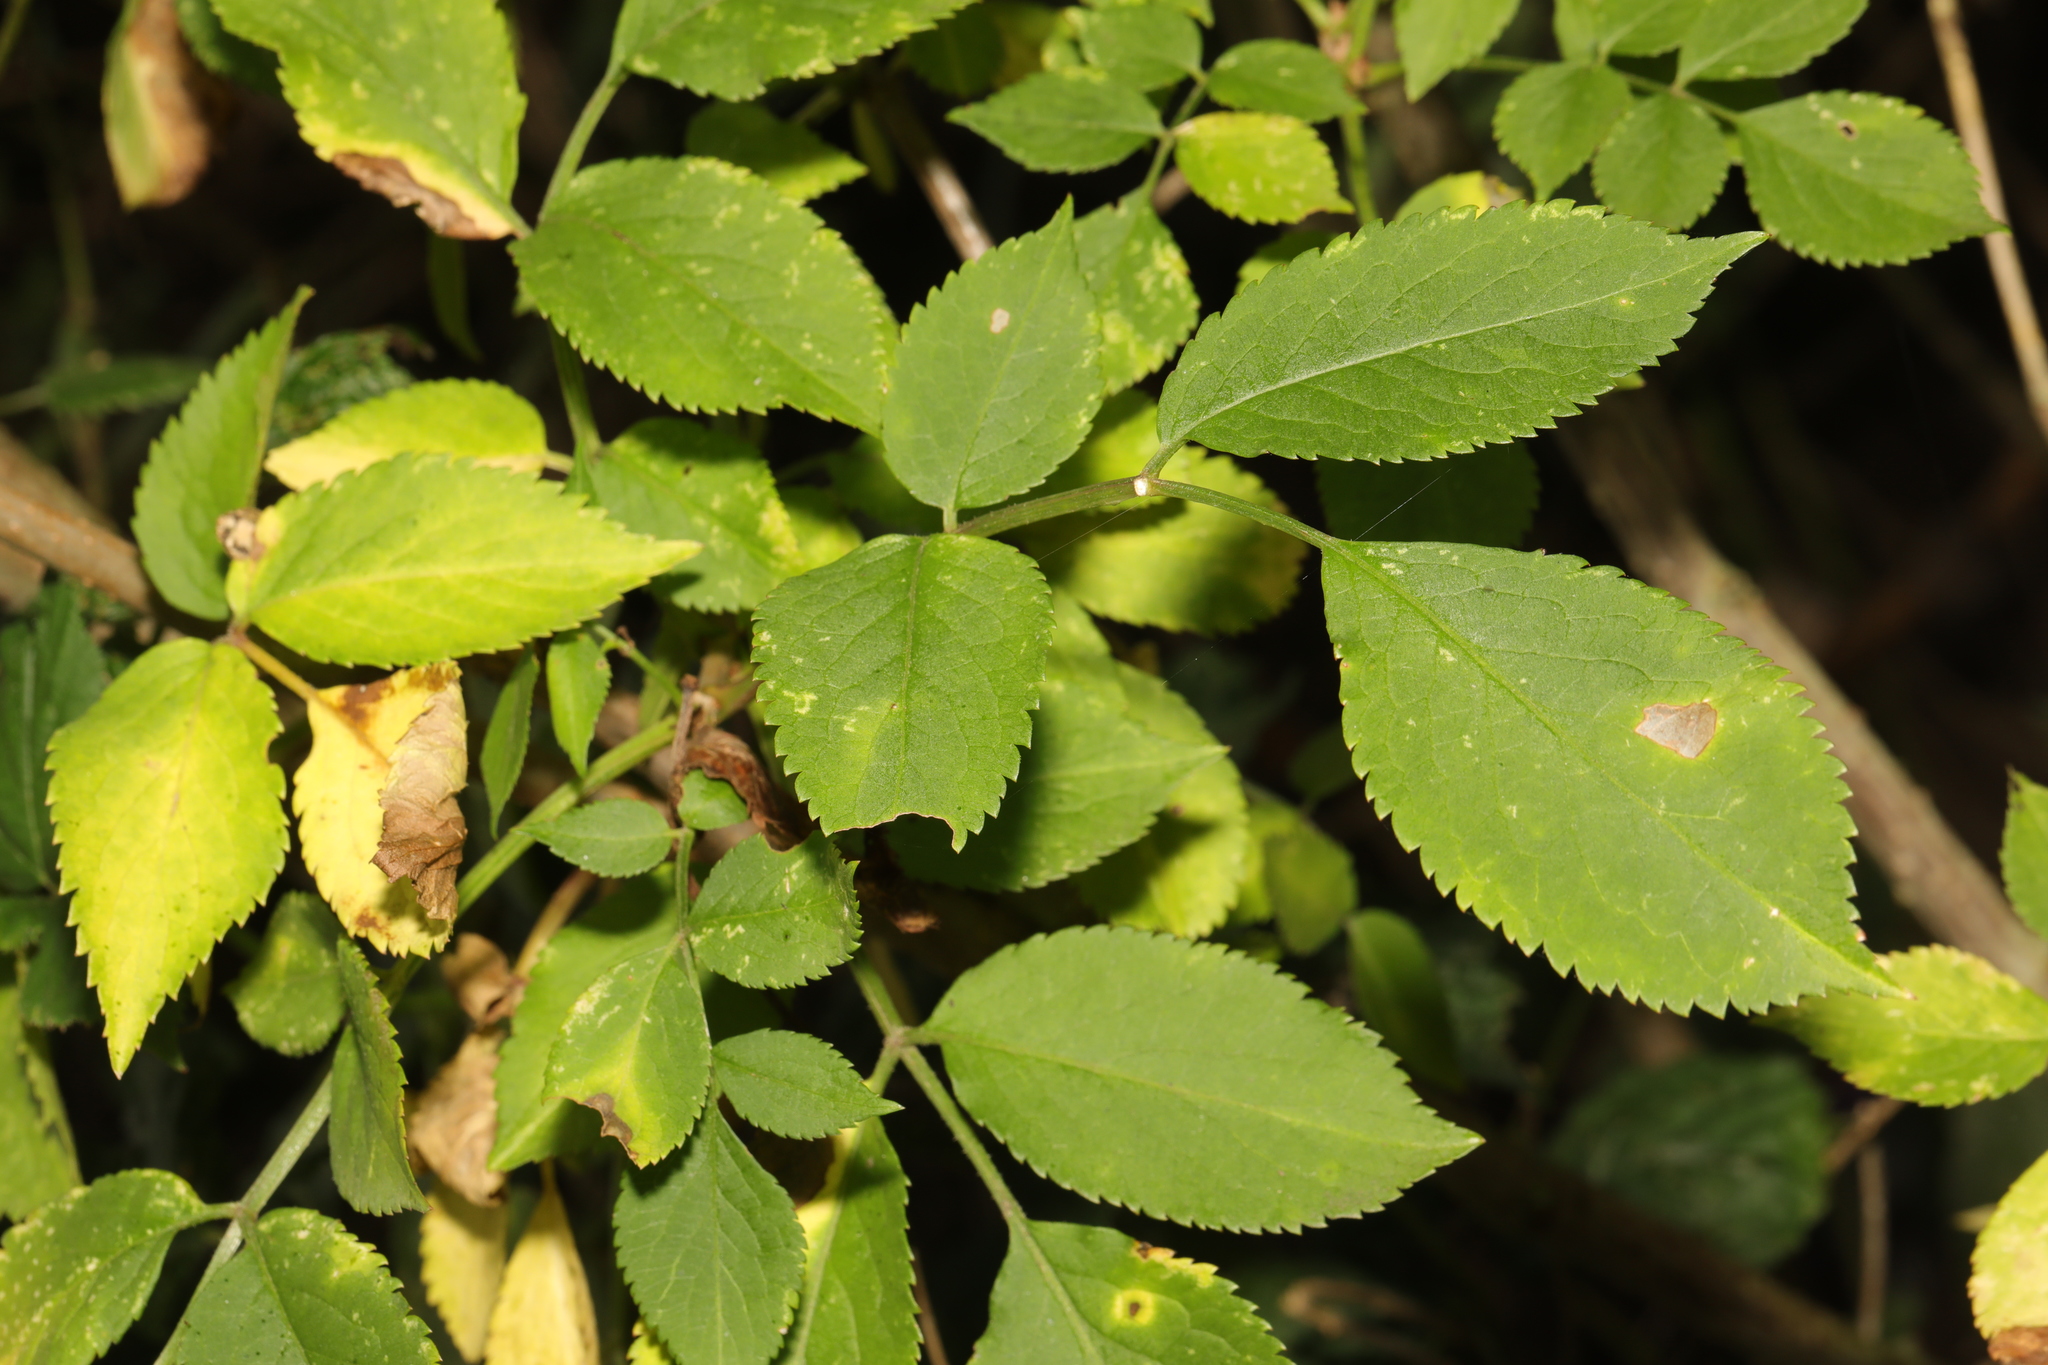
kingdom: Plantae
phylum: Tracheophyta
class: Magnoliopsida
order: Dipsacales
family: Viburnaceae
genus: Sambucus
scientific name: Sambucus nigra
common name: Elder
